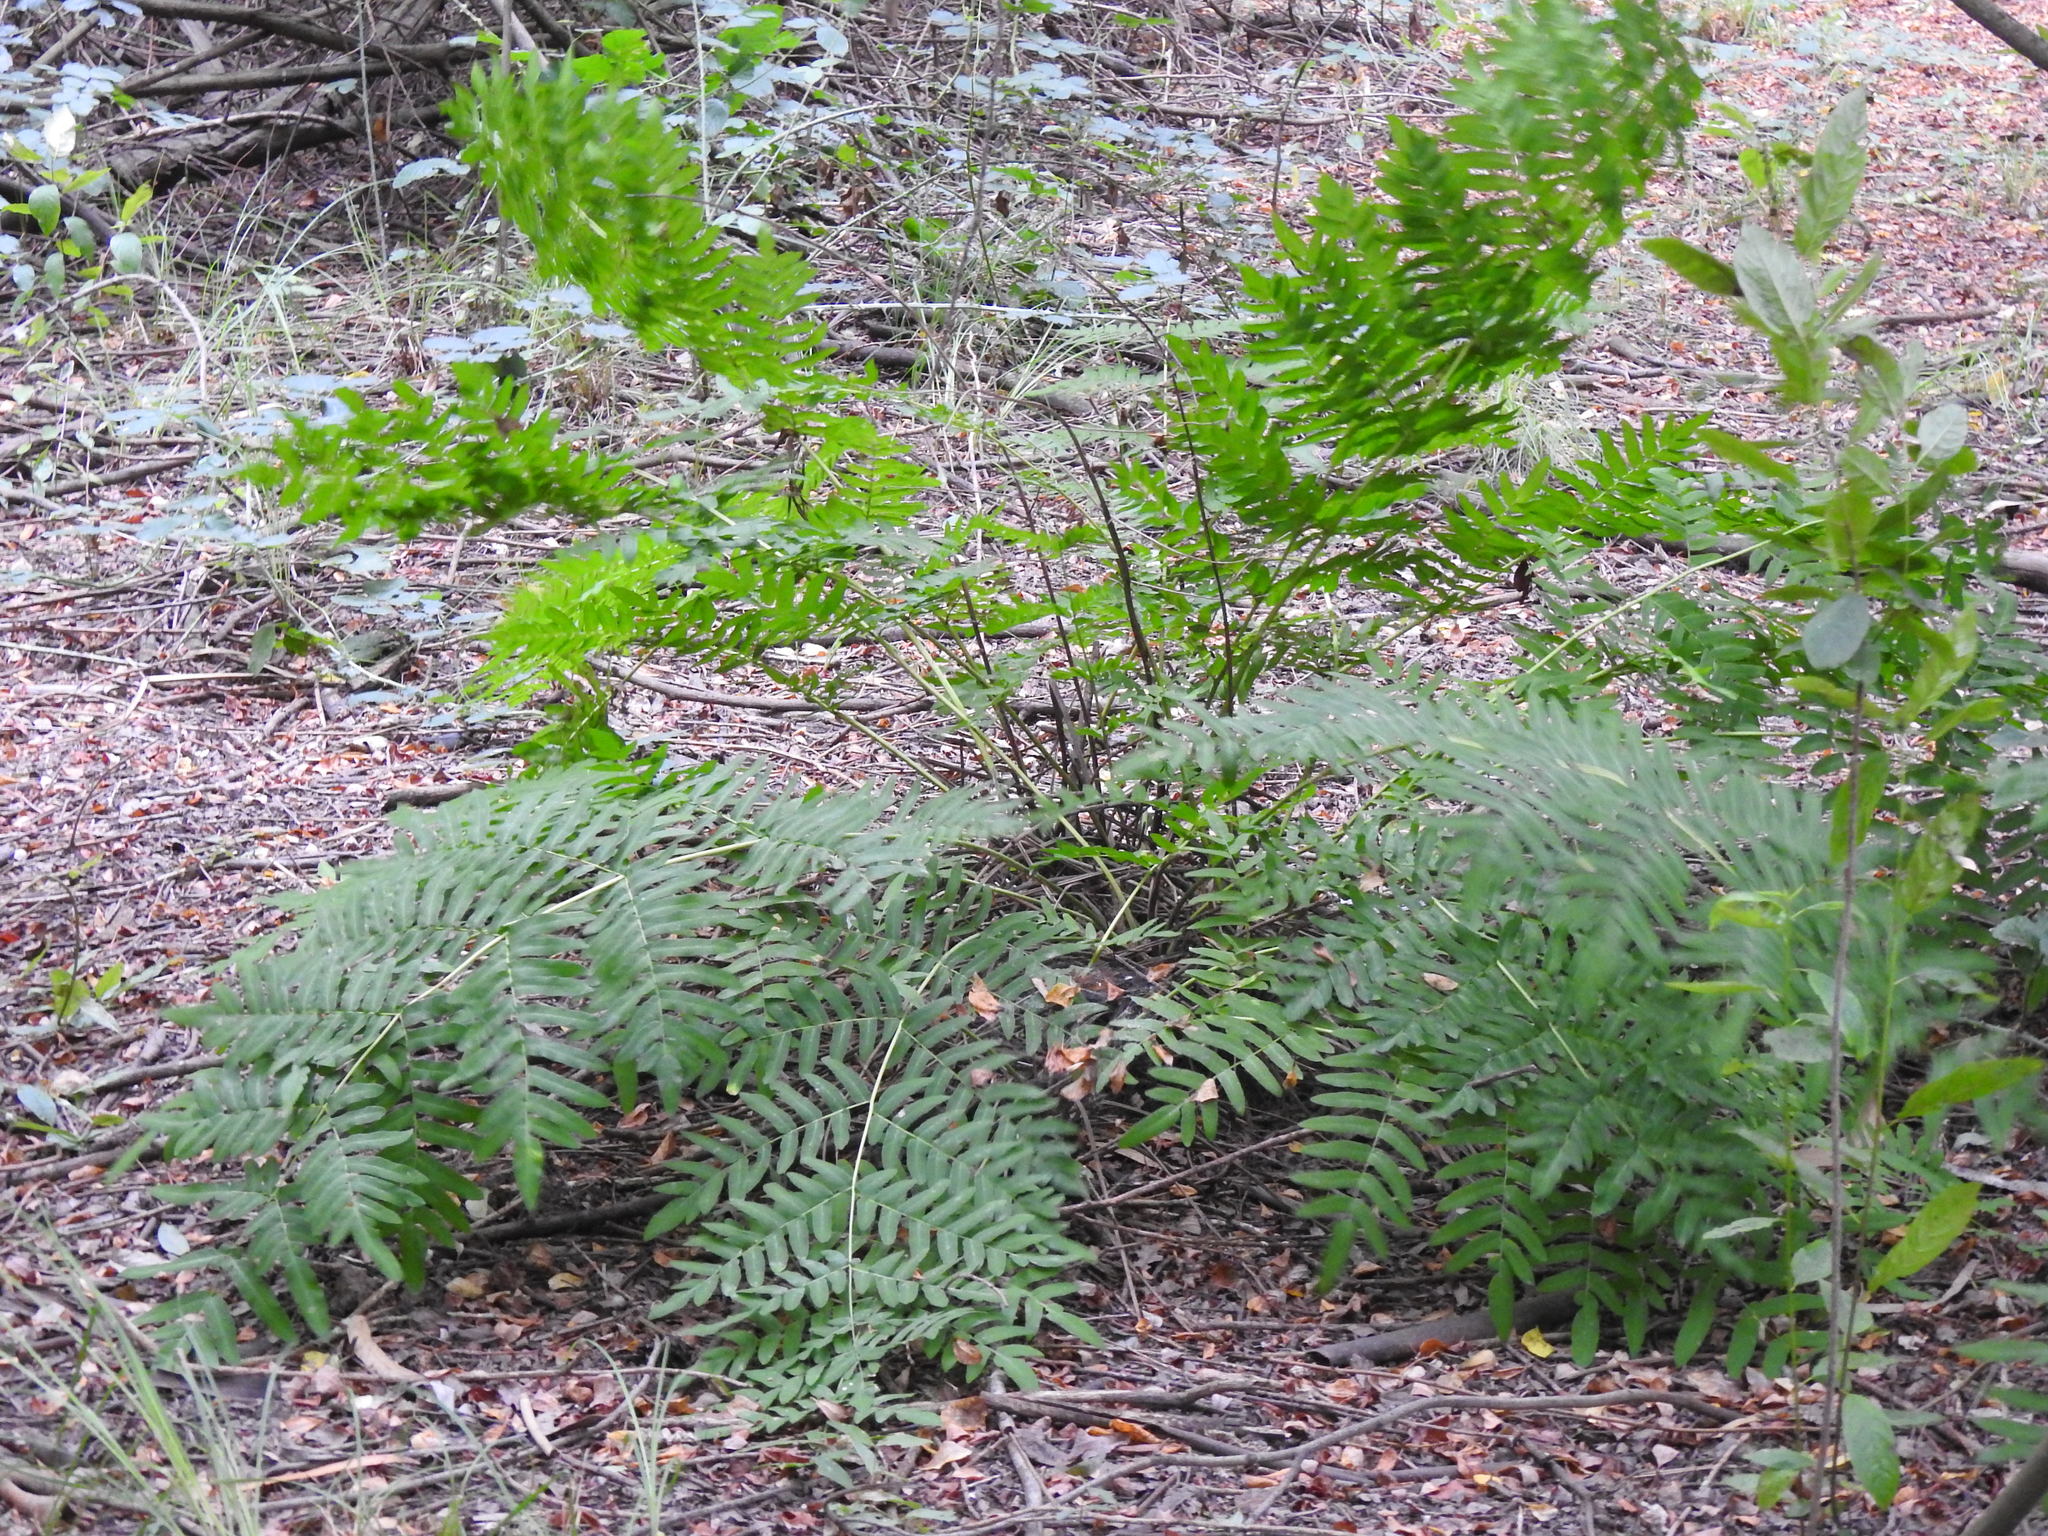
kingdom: Plantae
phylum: Tracheophyta
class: Polypodiopsida
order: Osmundales
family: Osmundaceae
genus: Osmunda
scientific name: Osmunda regalis
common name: Royal fern
